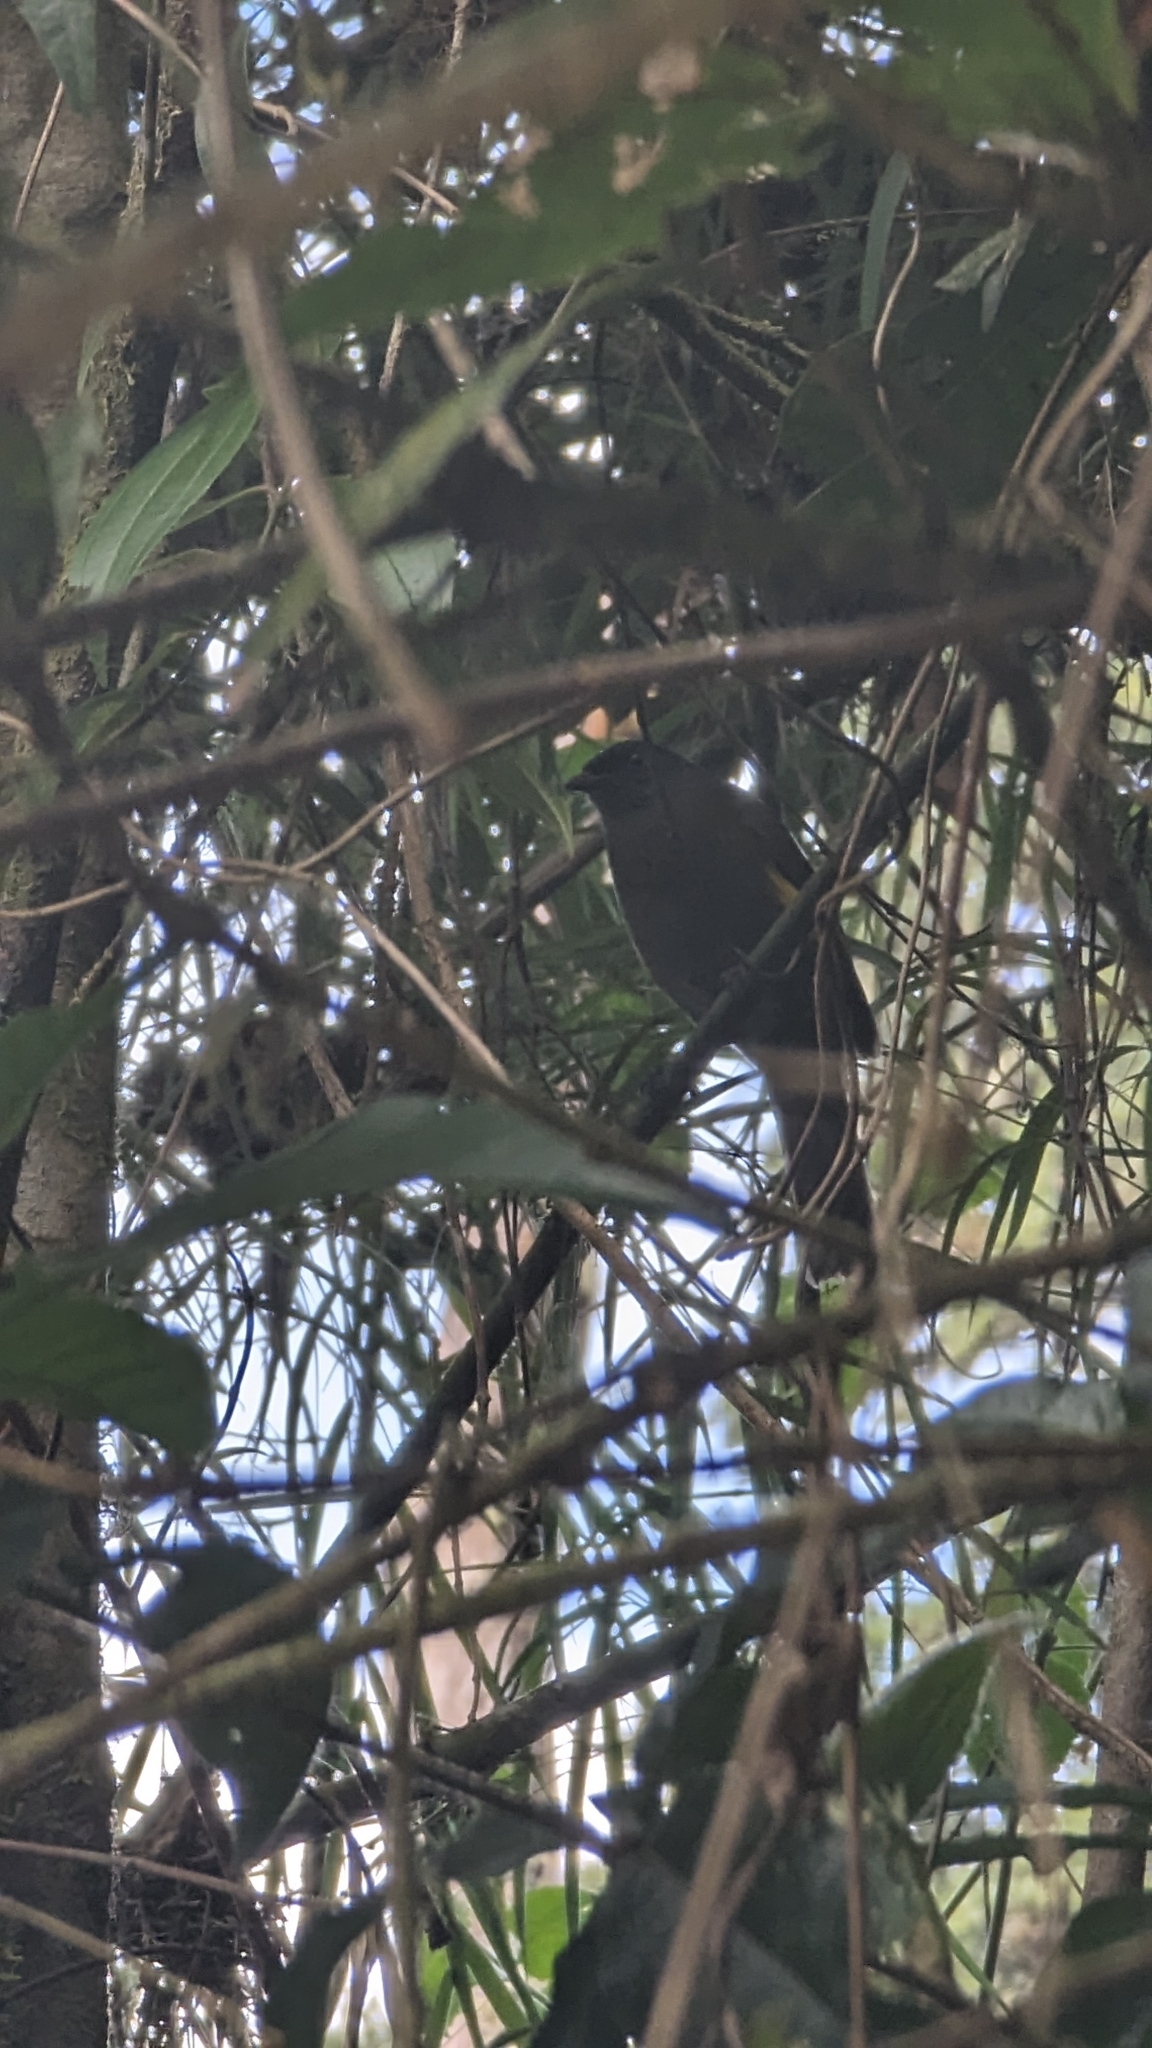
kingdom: Animalia
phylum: Chordata
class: Aves
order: Passeriformes
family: Ptilogonatidae
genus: Phainoptila
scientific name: Phainoptila melanoxantha
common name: Black-and-yellow phainoptila
